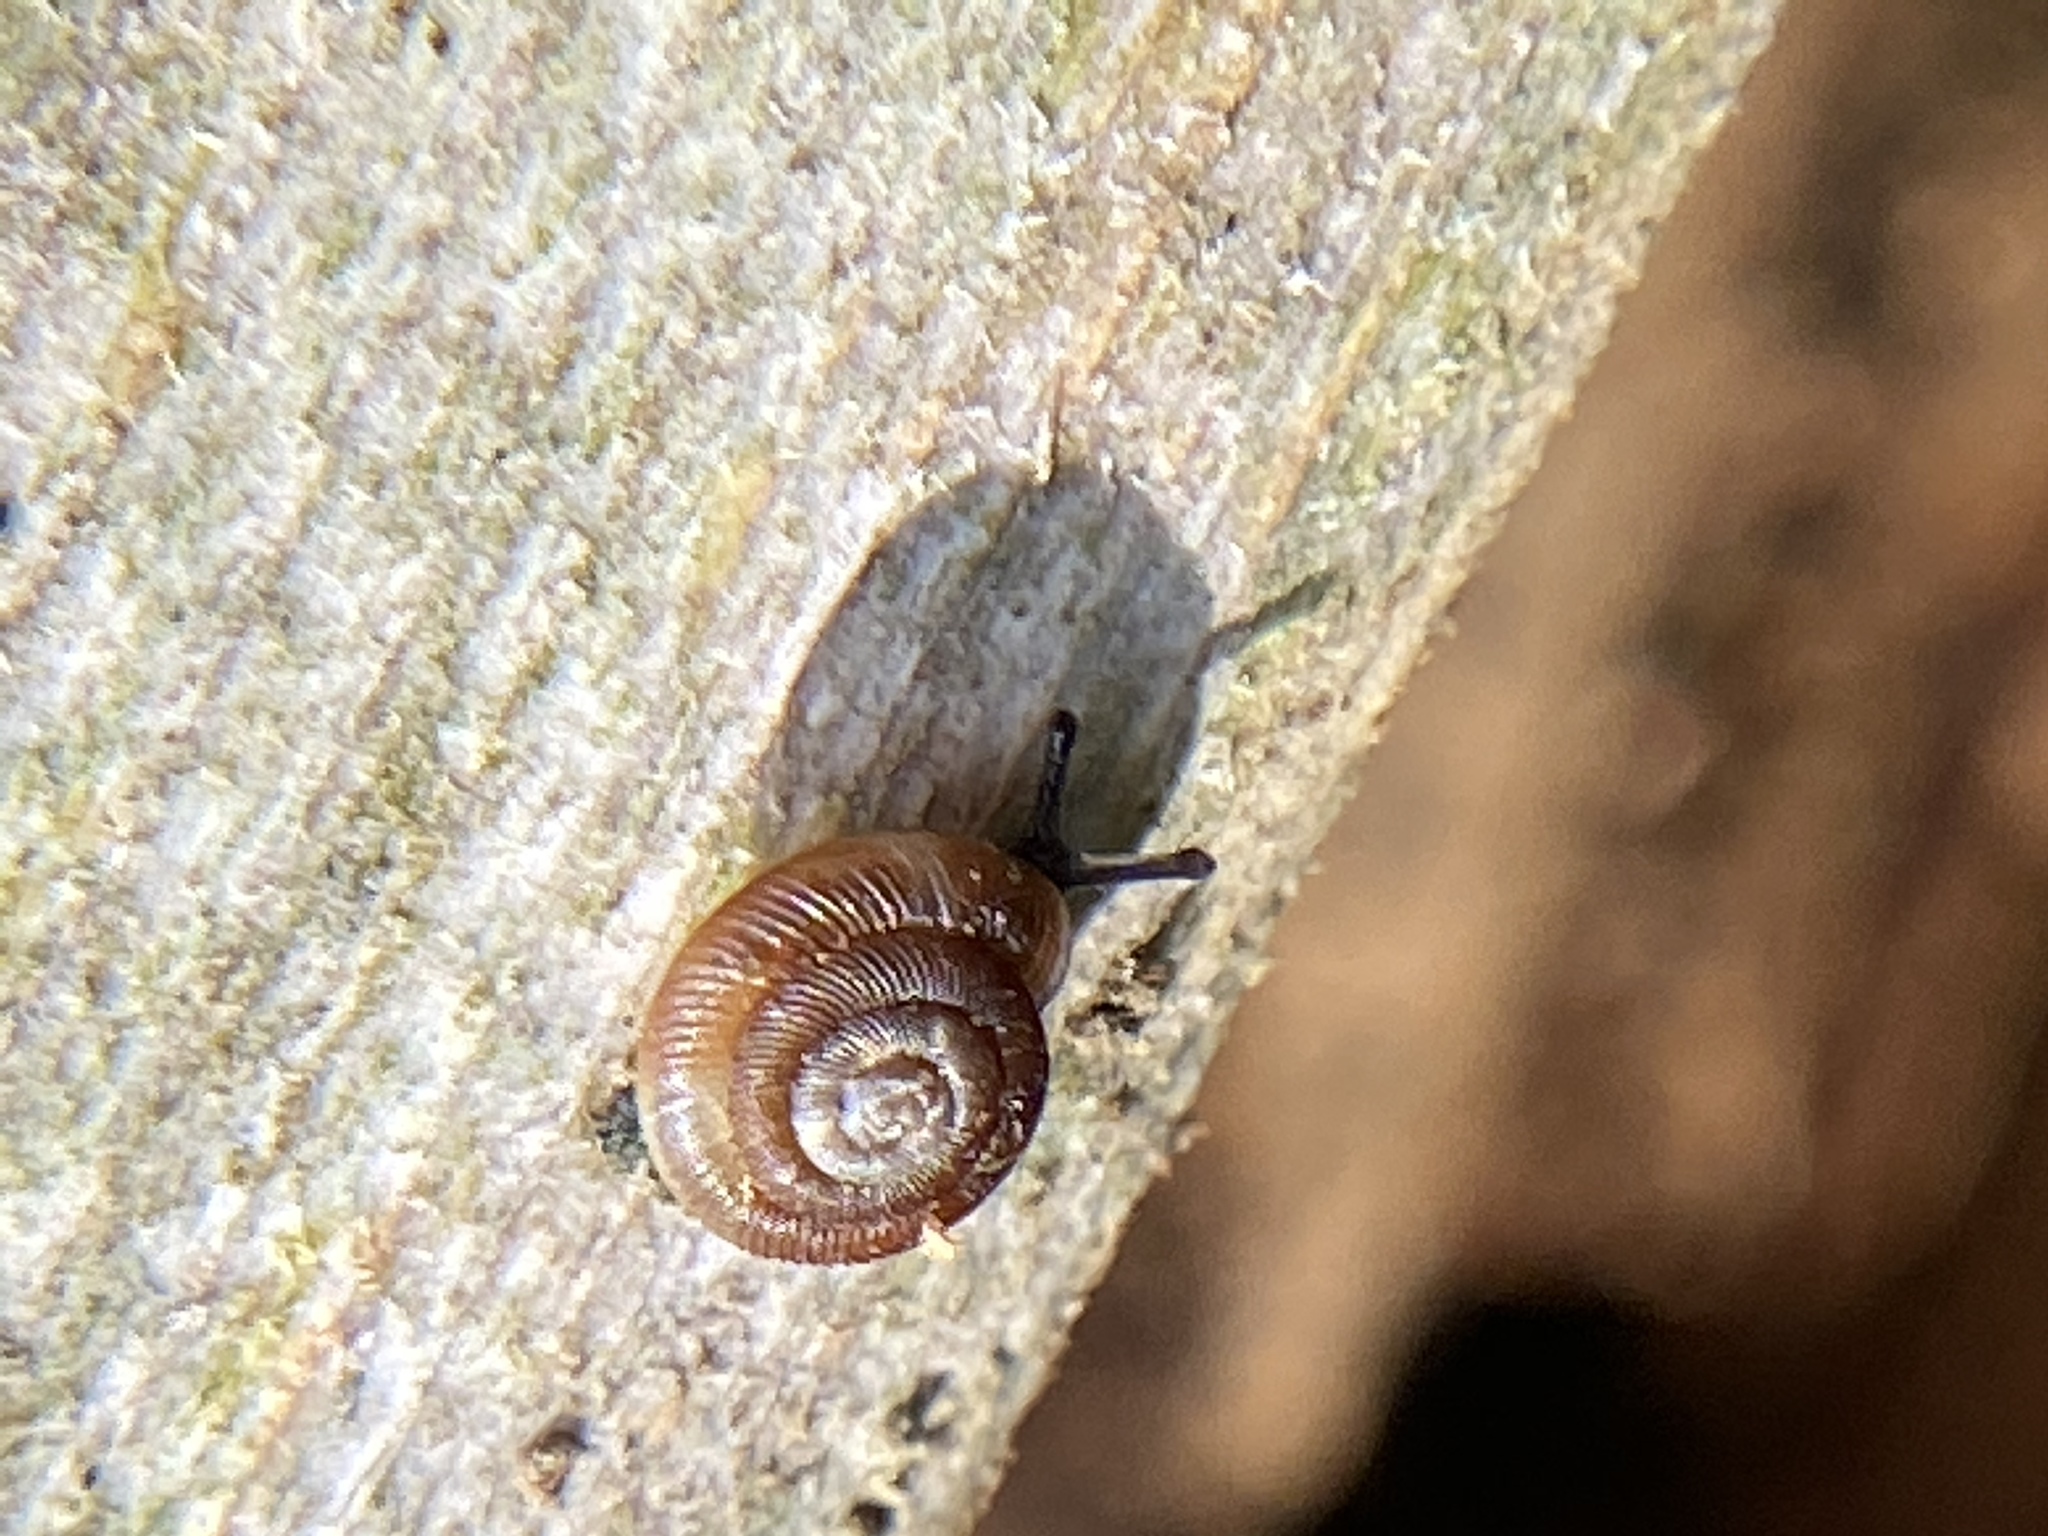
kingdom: Animalia
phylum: Mollusca
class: Gastropoda
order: Stylommatophora
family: Discidae
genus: Discus
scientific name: Discus rotundatus
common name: Rounded snail
